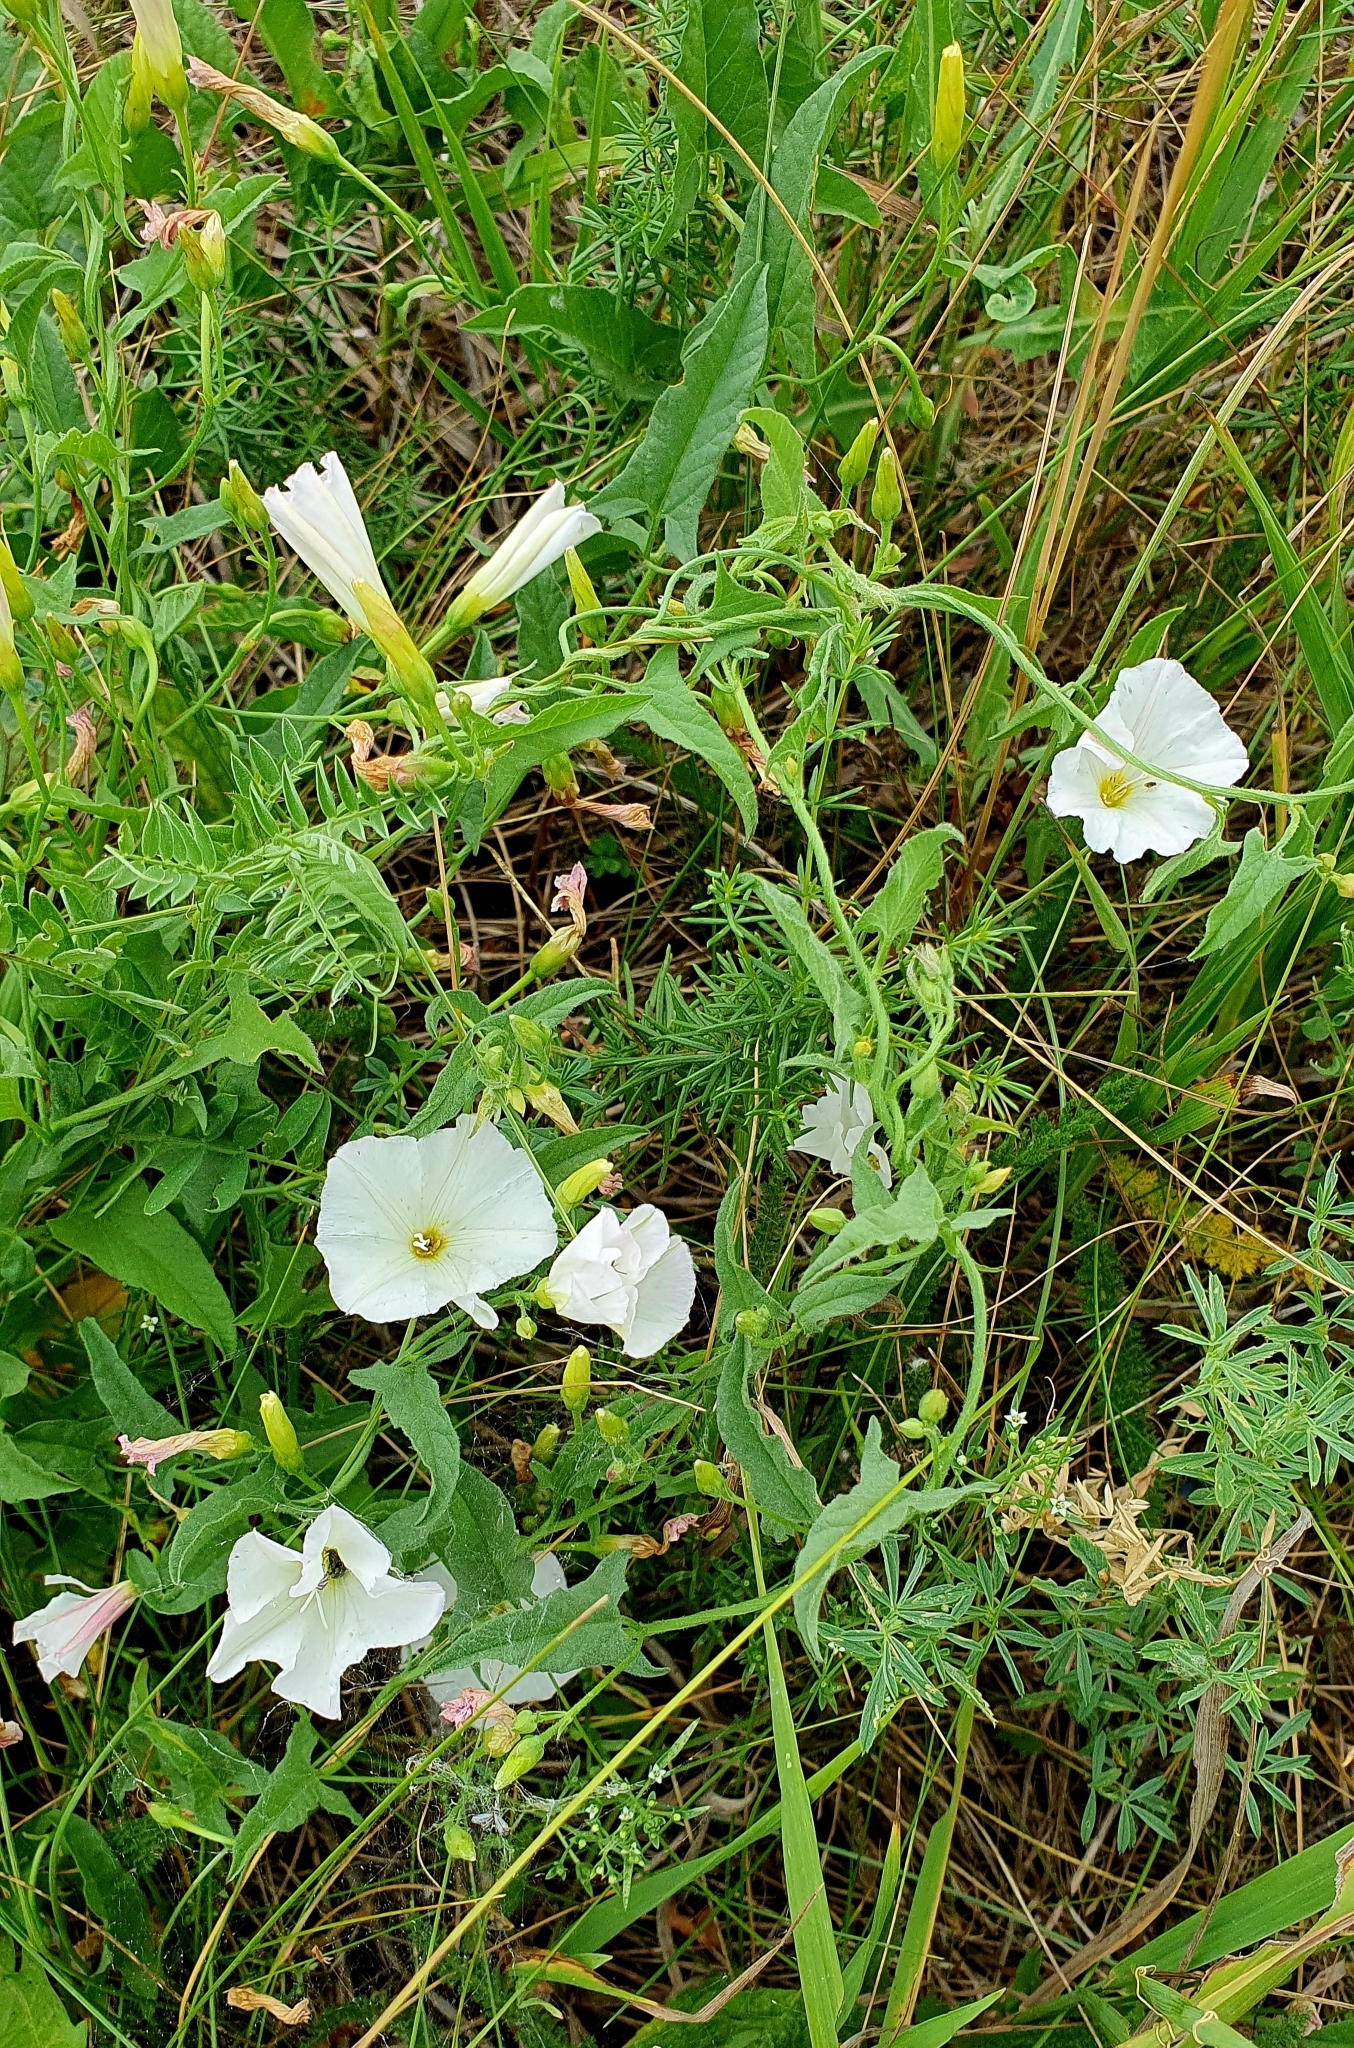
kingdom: Plantae
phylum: Tracheophyta
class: Magnoliopsida
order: Solanales
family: Convolvulaceae
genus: Convolvulus
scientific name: Convolvulus arvensis
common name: Field bindweed
